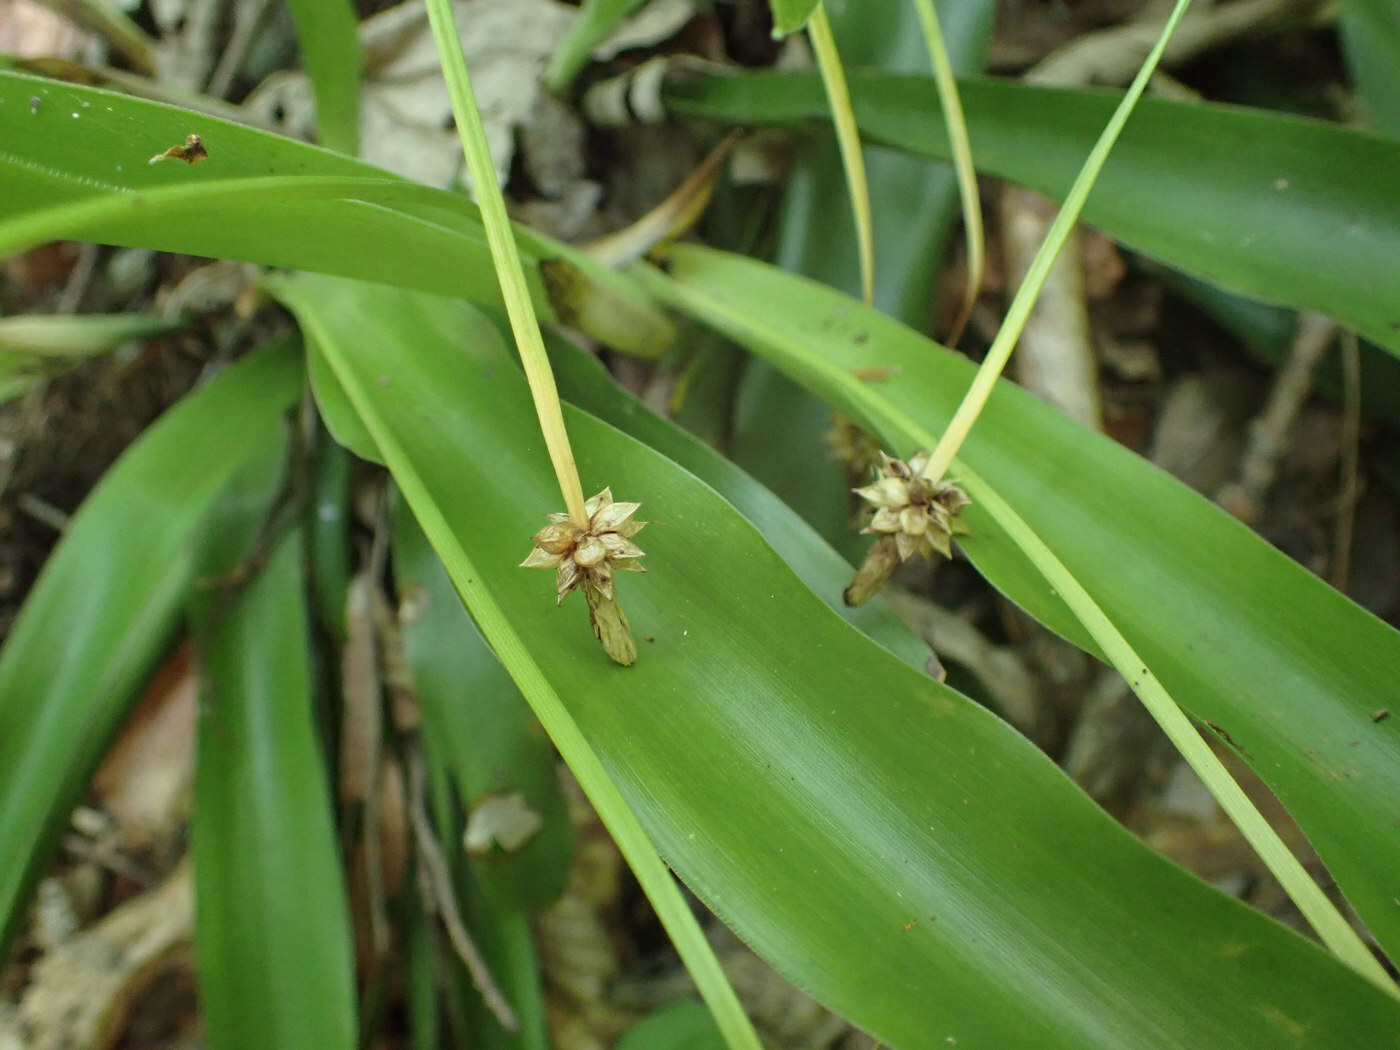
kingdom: Plantae
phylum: Tracheophyta
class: Liliopsida
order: Poales
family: Cyperaceae
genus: Carex
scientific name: Carex fraseriana
